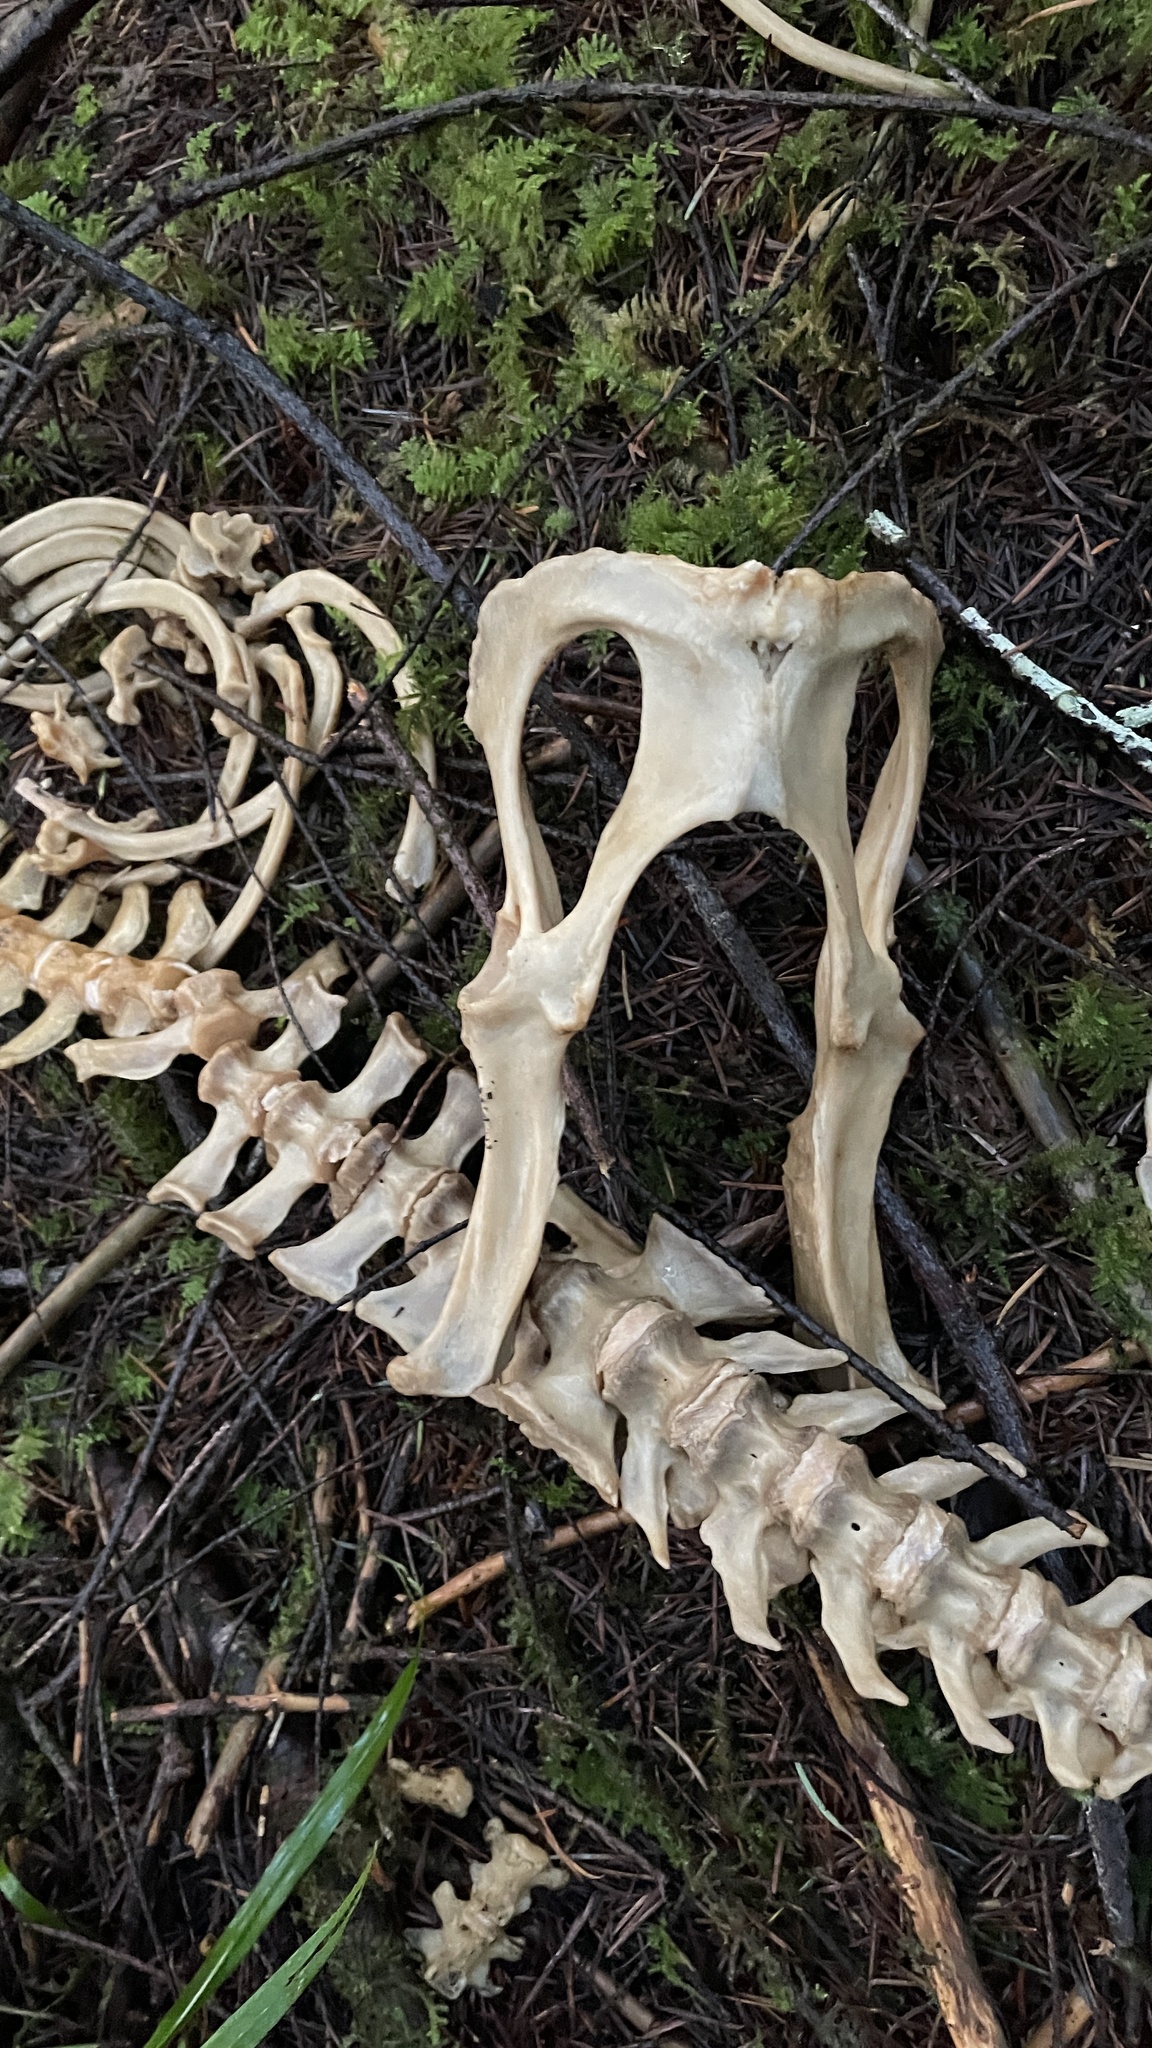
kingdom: Animalia
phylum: Chordata
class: Mammalia
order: Rodentia
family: Castoridae
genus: Castor
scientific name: Castor canadensis
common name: American beaver
